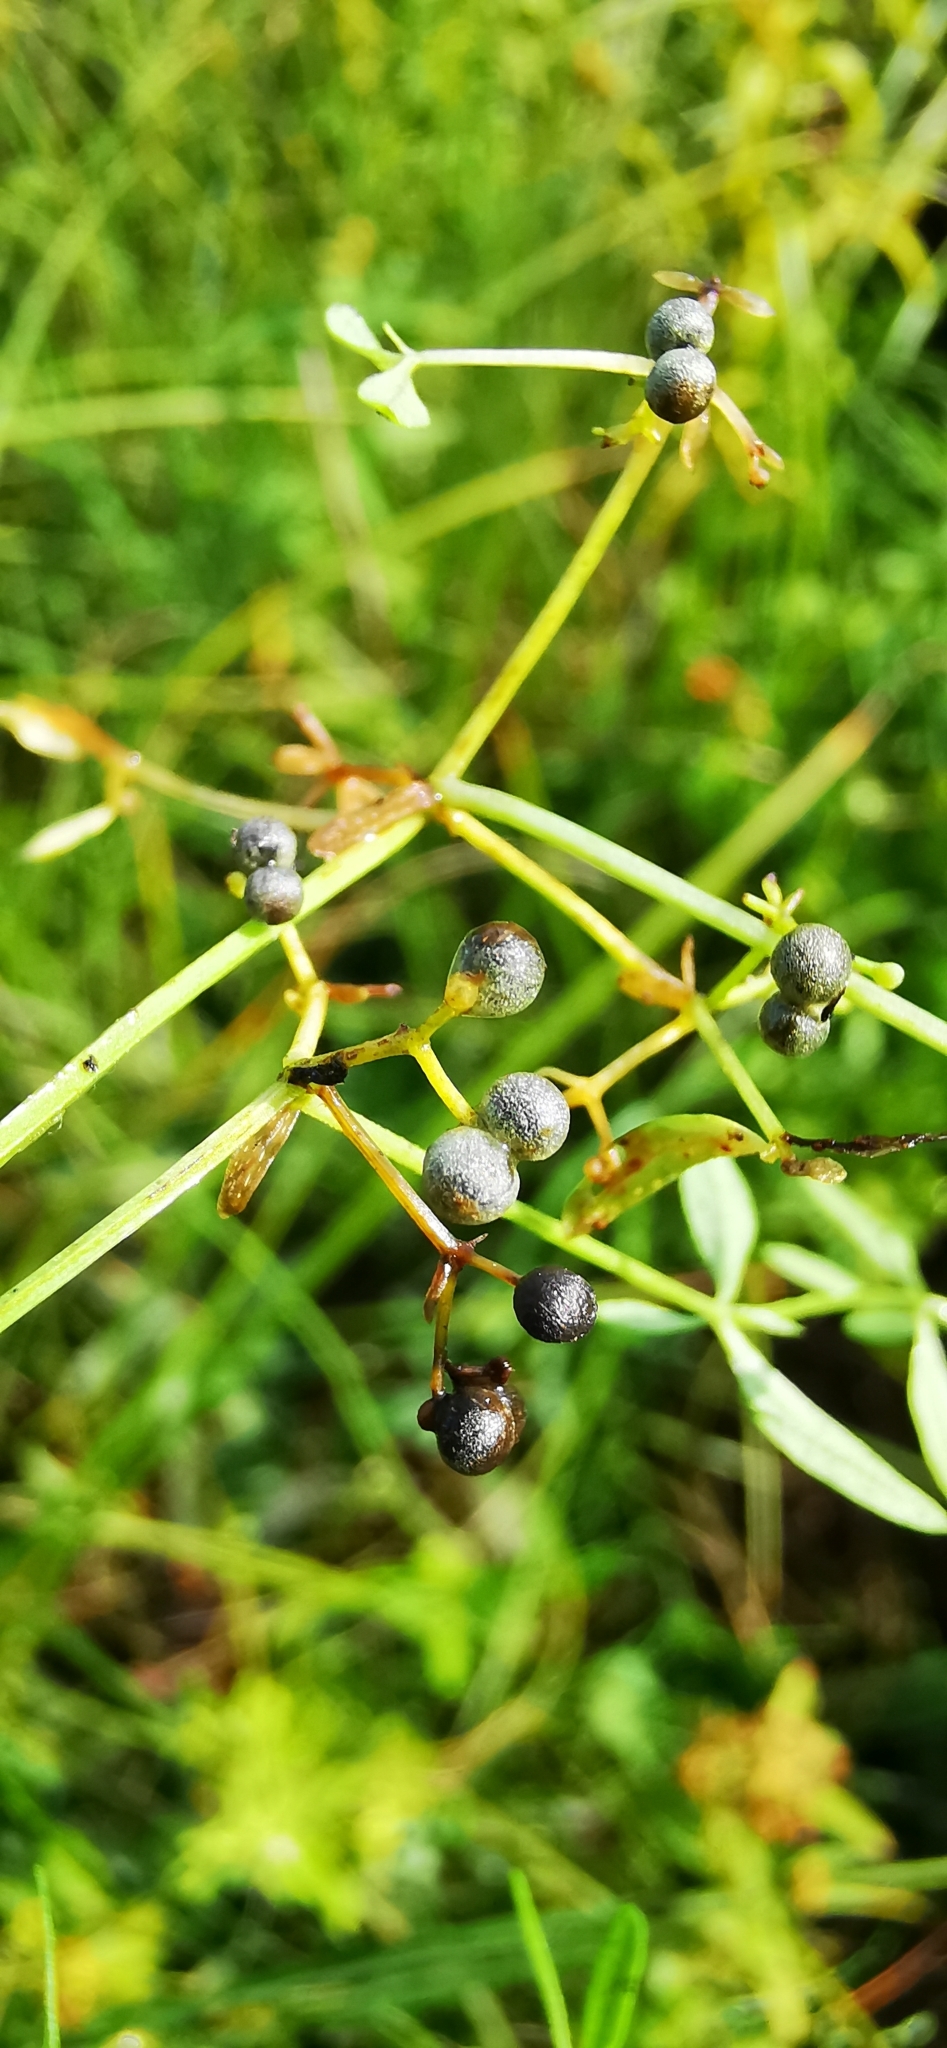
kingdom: Plantae
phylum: Tracheophyta
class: Magnoliopsida
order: Gentianales
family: Rubiaceae
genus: Galium
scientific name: Galium palustre
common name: Common marsh-bedstraw
